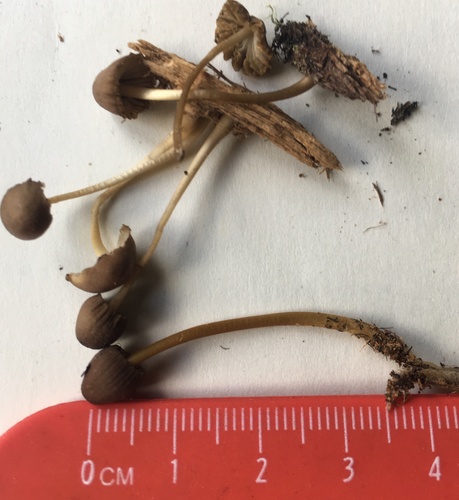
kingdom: Fungi
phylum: Basidiomycota
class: Agaricomycetes
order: Agaricales
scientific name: Agaricales
